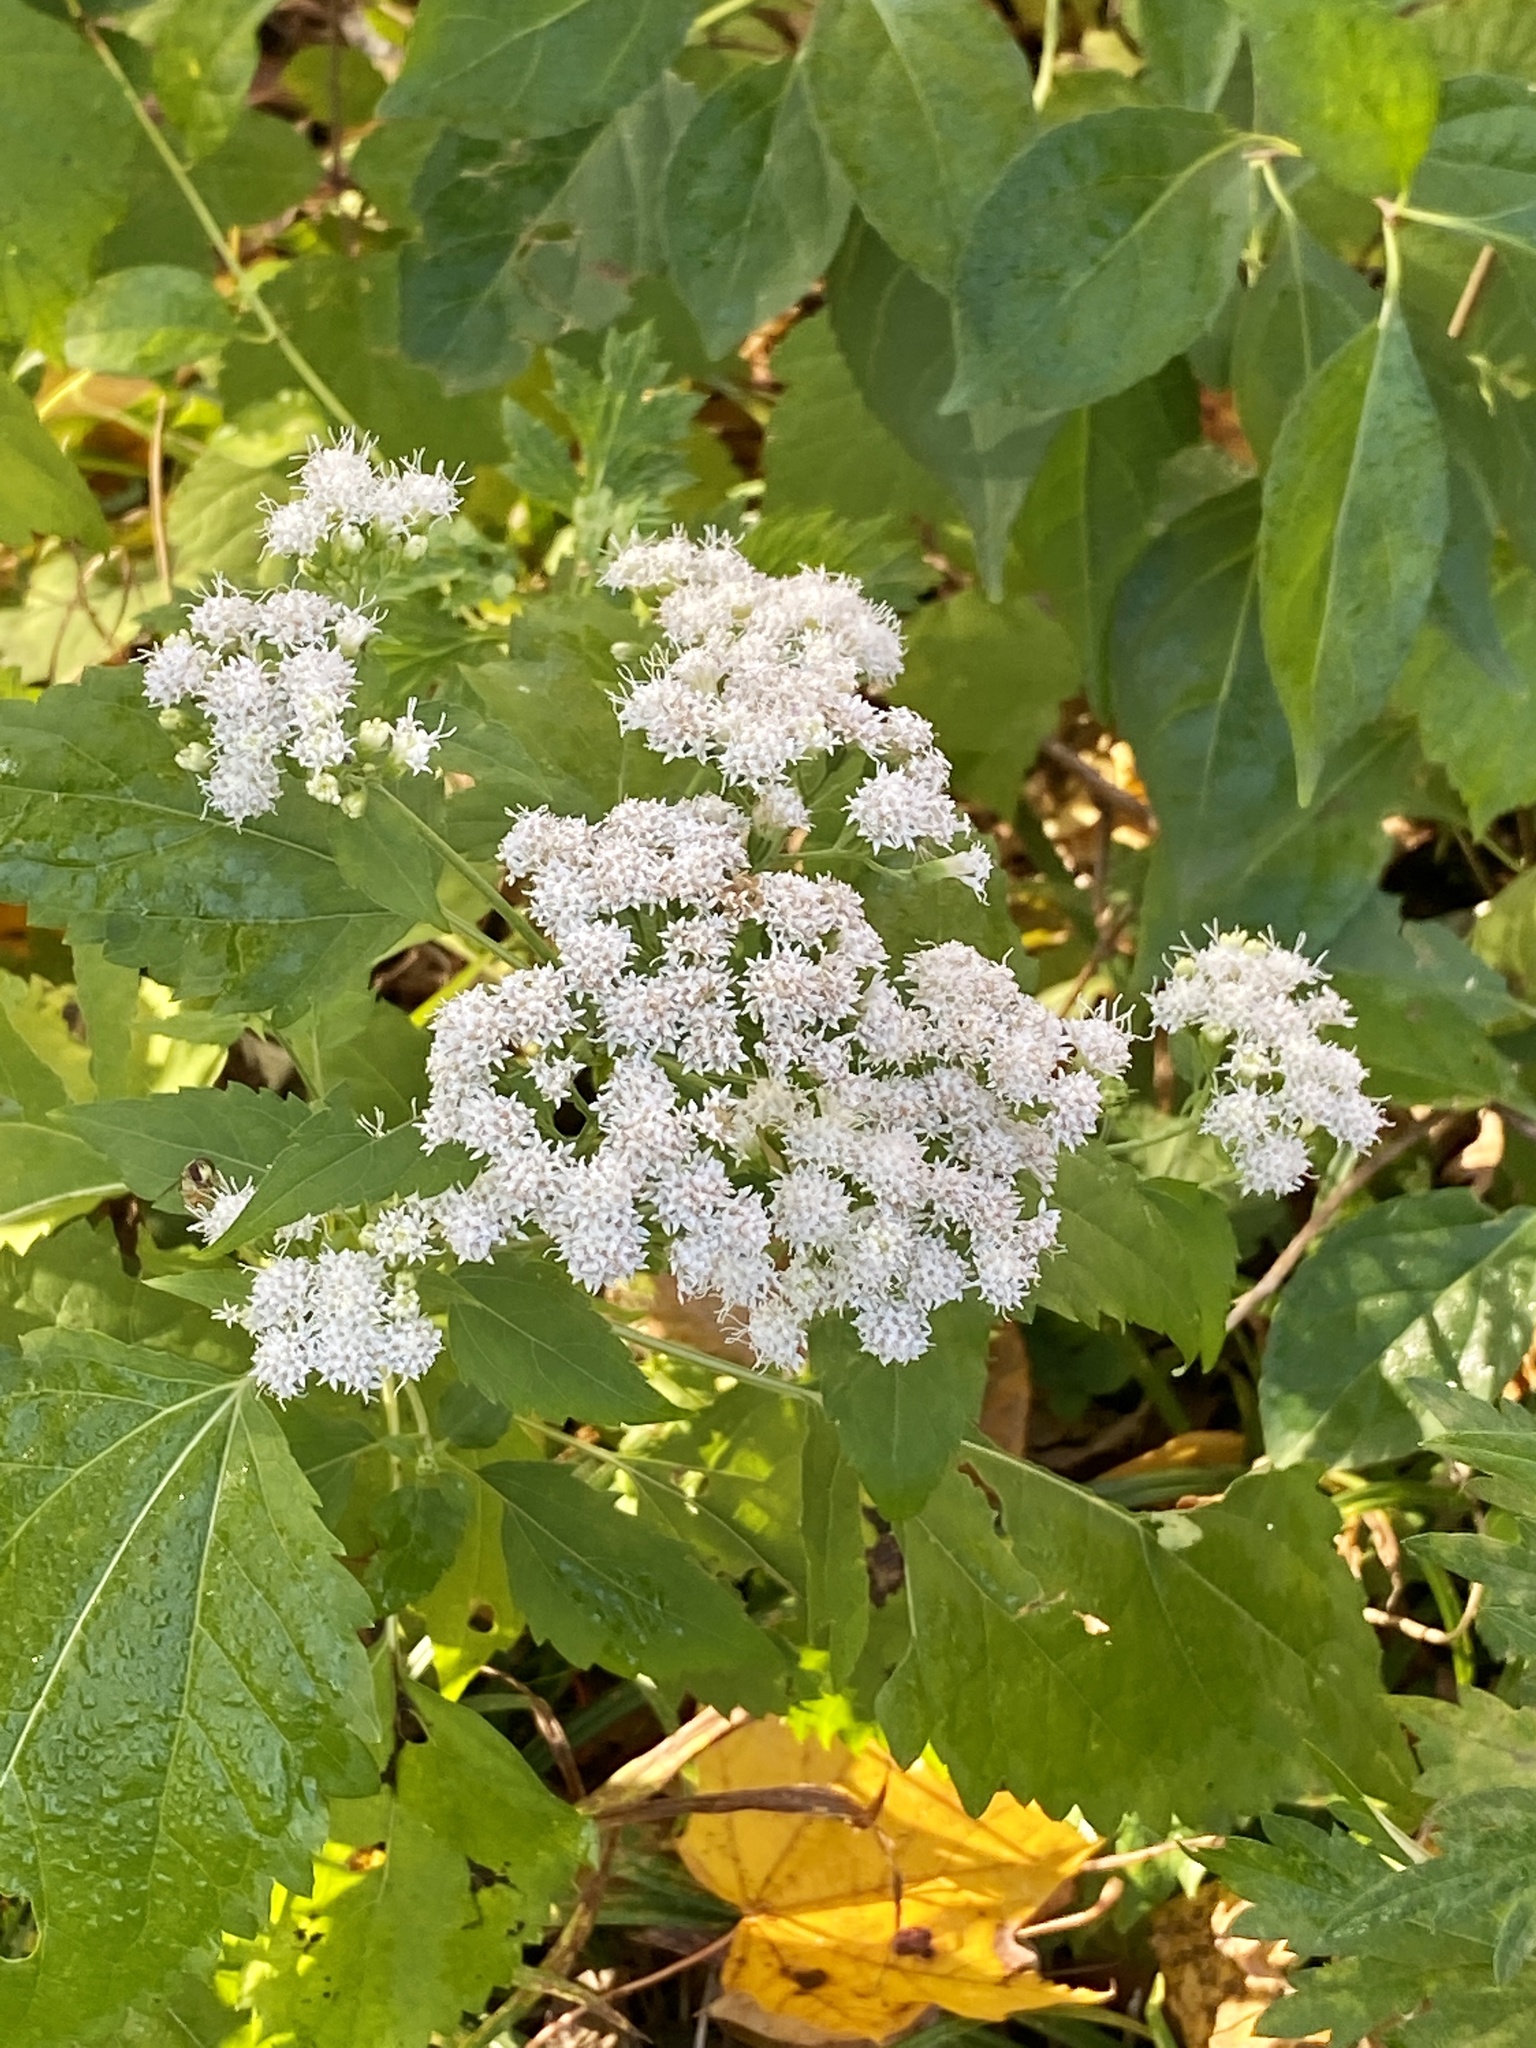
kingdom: Plantae
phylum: Tracheophyta
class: Magnoliopsida
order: Asterales
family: Asteraceae
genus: Ageratina
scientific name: Ageratina altissima
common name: White snakeroot
